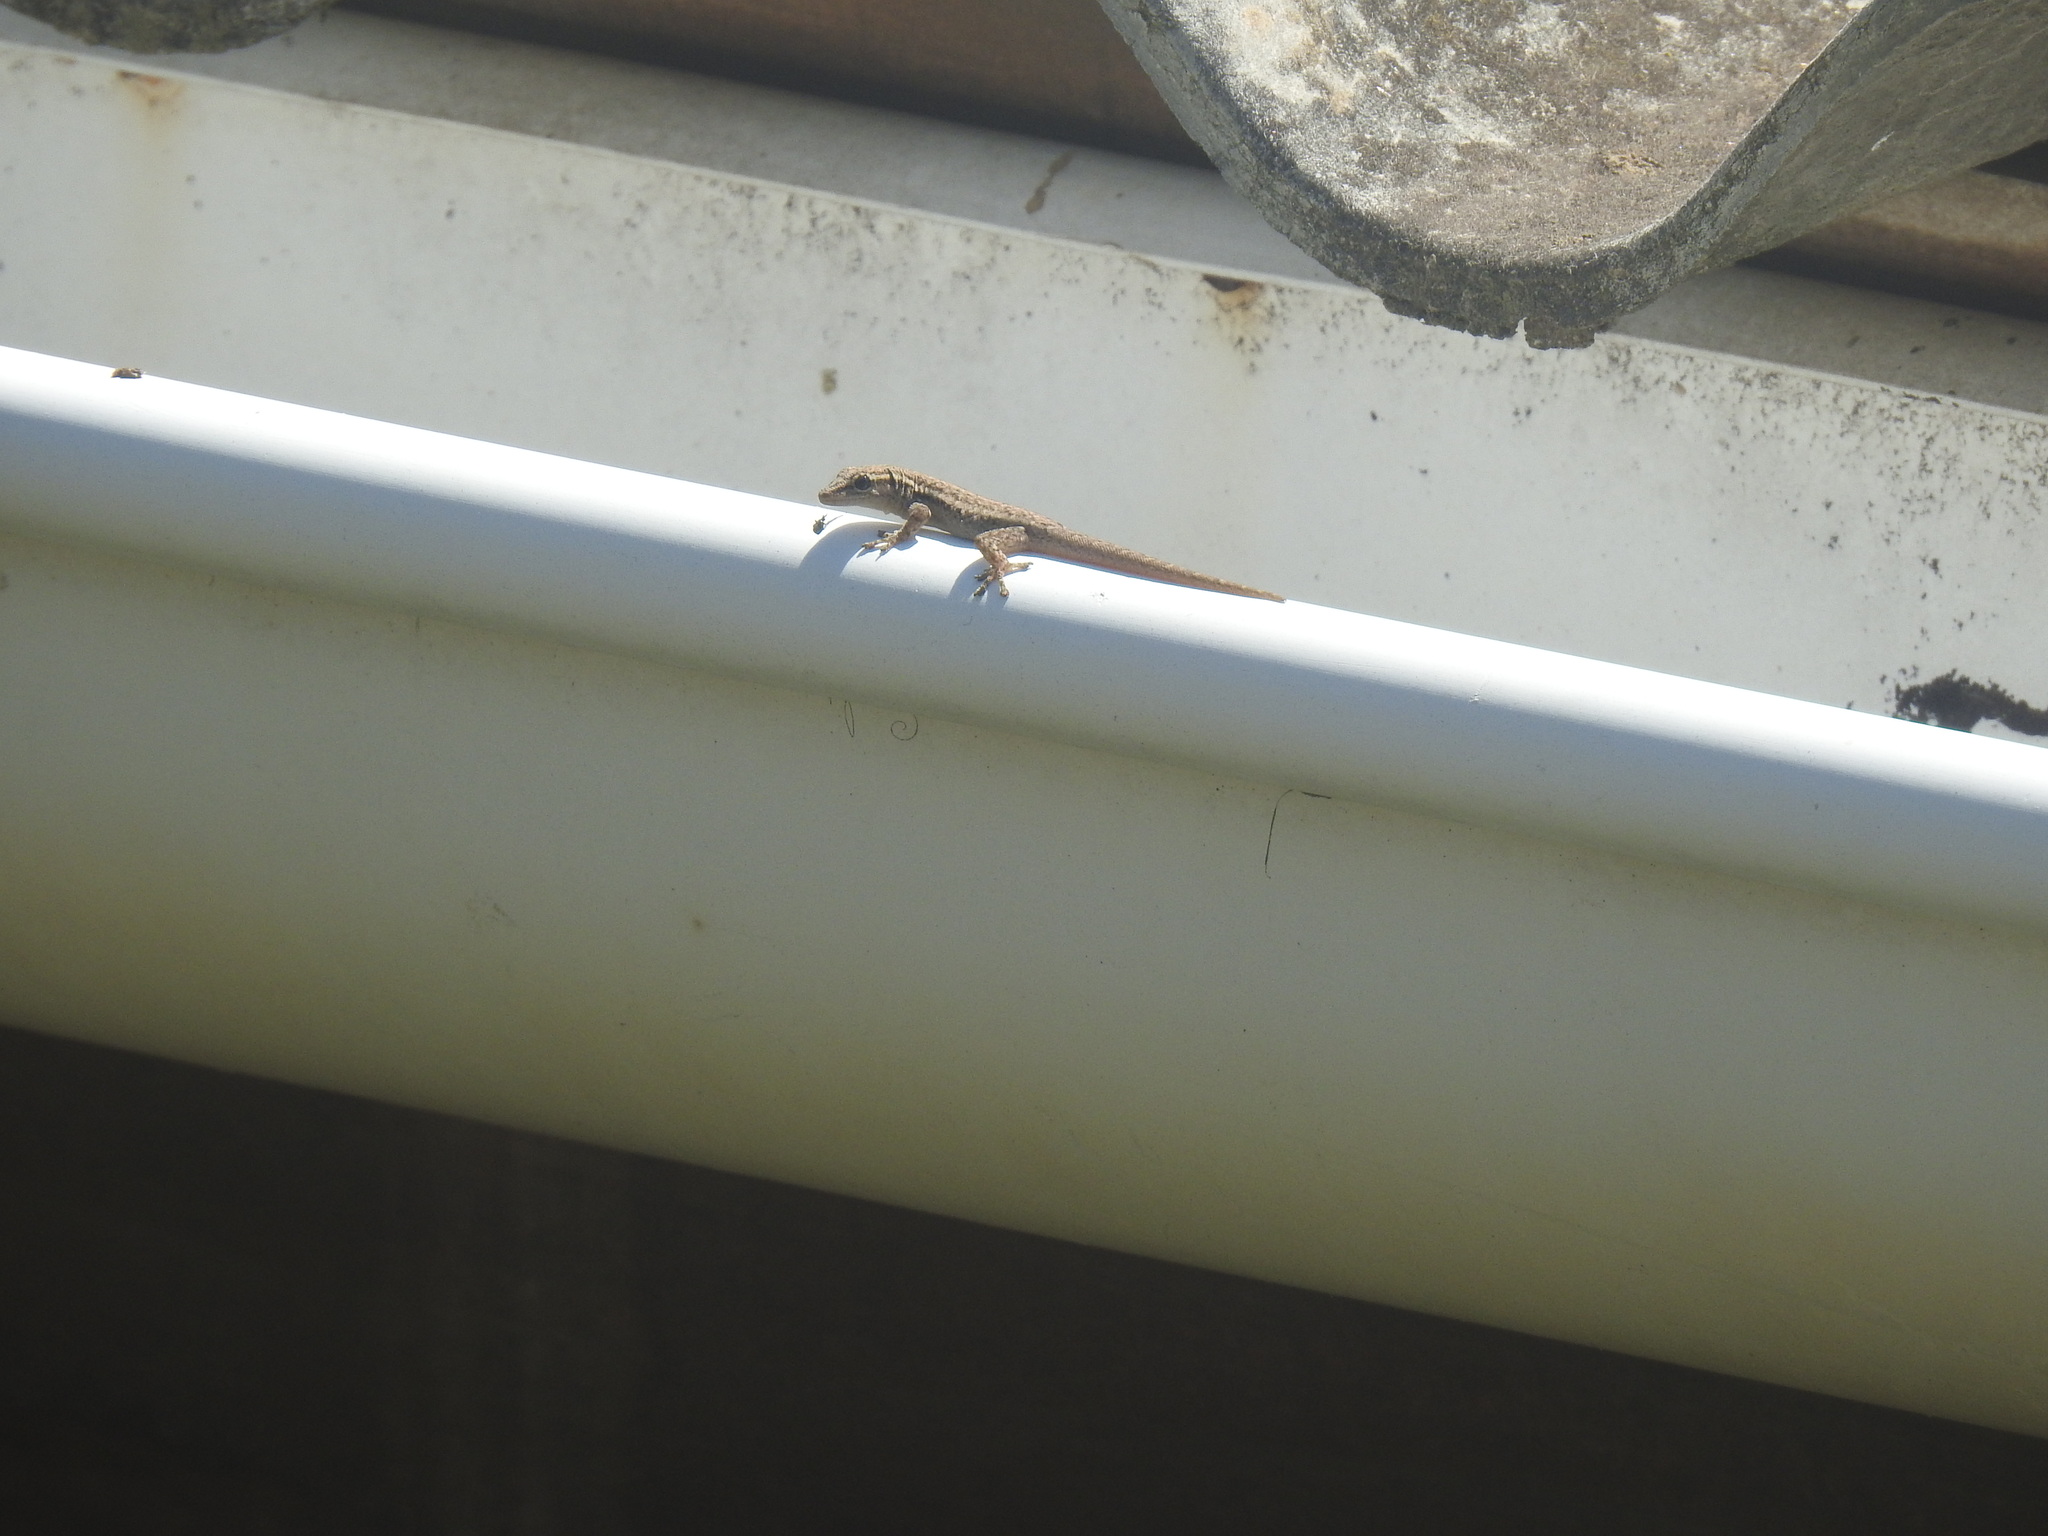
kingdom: Animalia
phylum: Chordata
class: Squamata
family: Gekkonidae
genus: Lygodactylus
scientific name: Lygodactylus capensis
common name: Cape dwarf gecko
